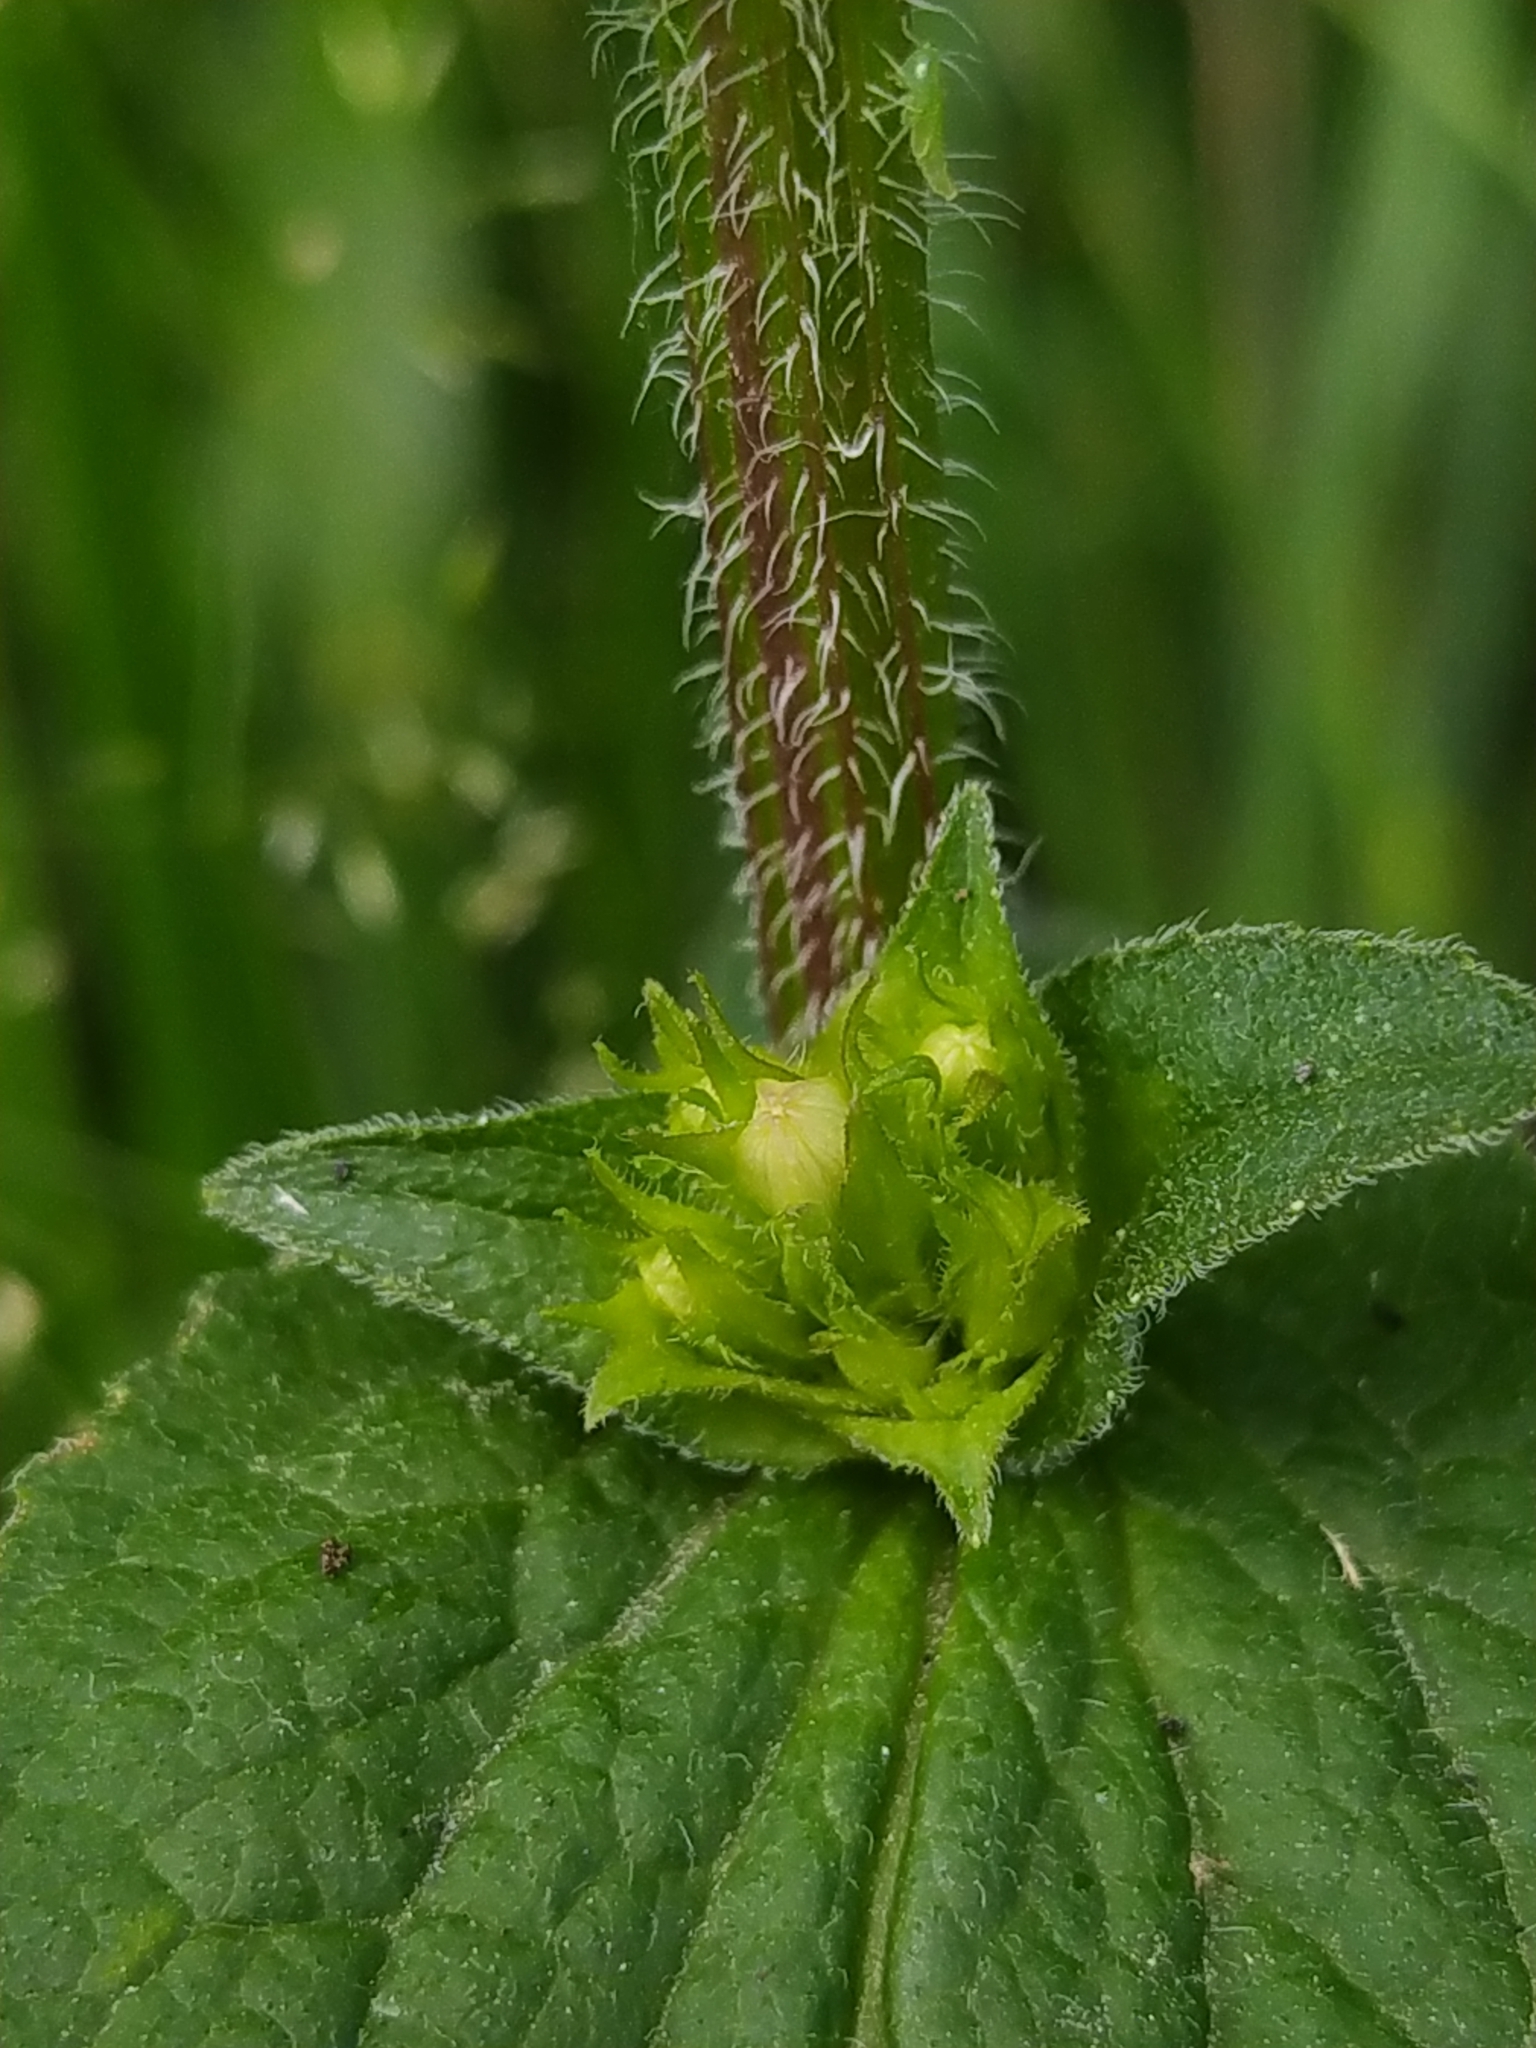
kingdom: Plantae
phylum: Tracheophyta
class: Magnoliopsida
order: Asterales
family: Campanulaceae
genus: Campanula
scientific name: Campanula glomerata
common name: Clustered bellflower
